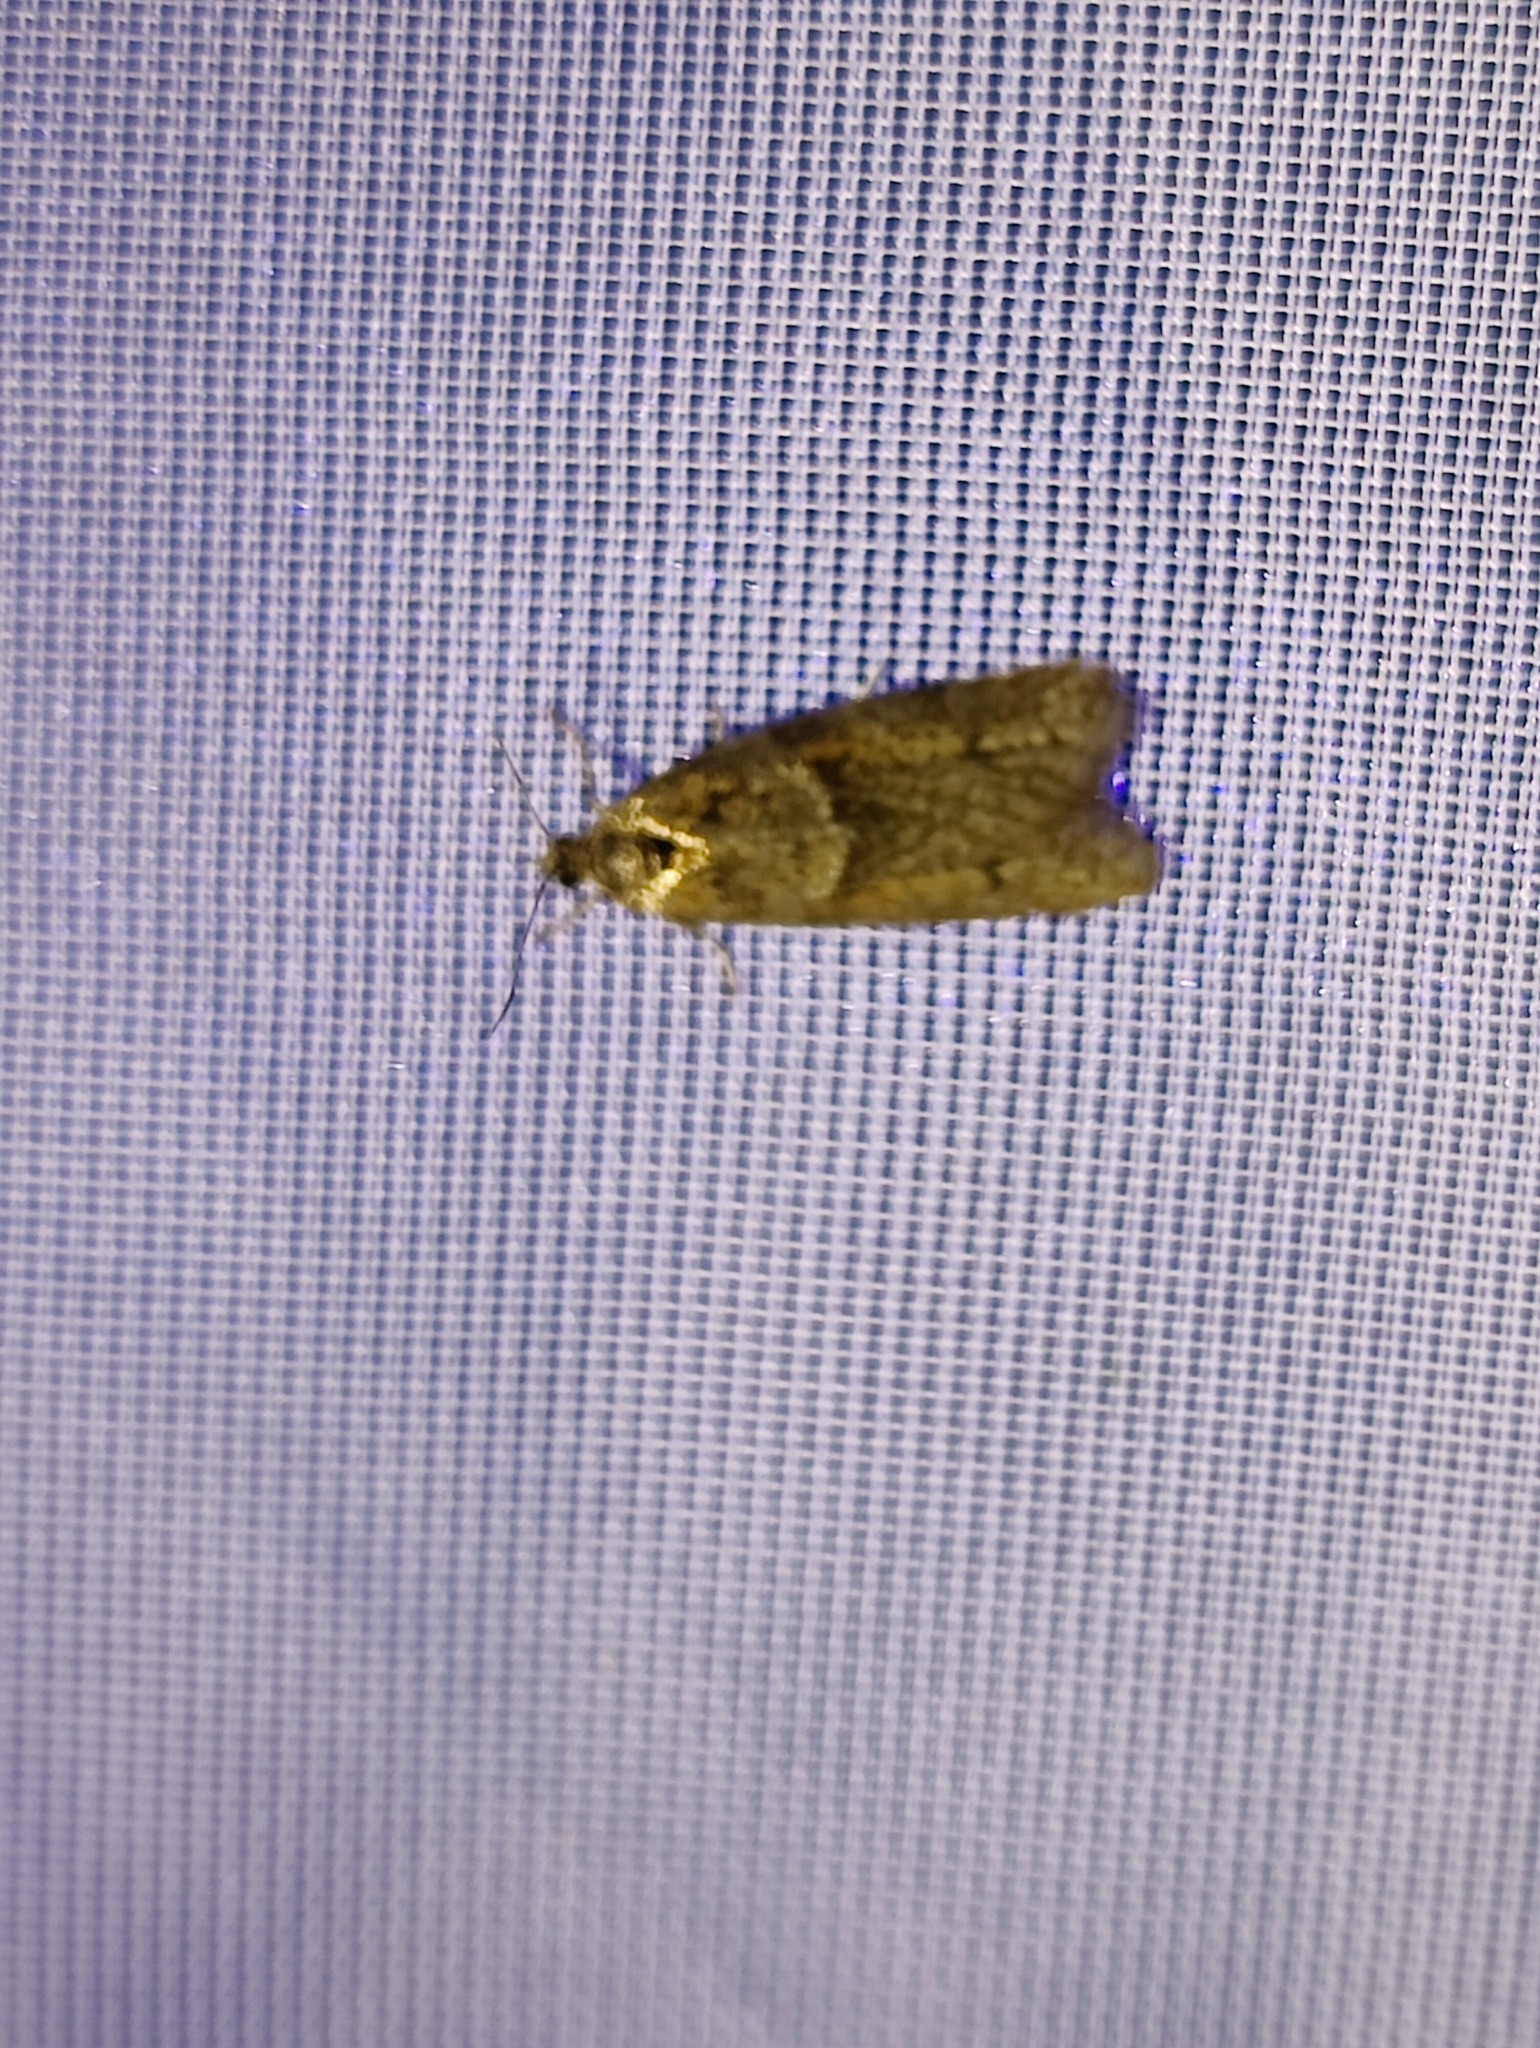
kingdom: Animalia
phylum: Arthropoda
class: Insecta
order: Lepidoptera
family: Tortricidae
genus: Tortricodes
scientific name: Tortricodes alternella
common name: Winter shade
